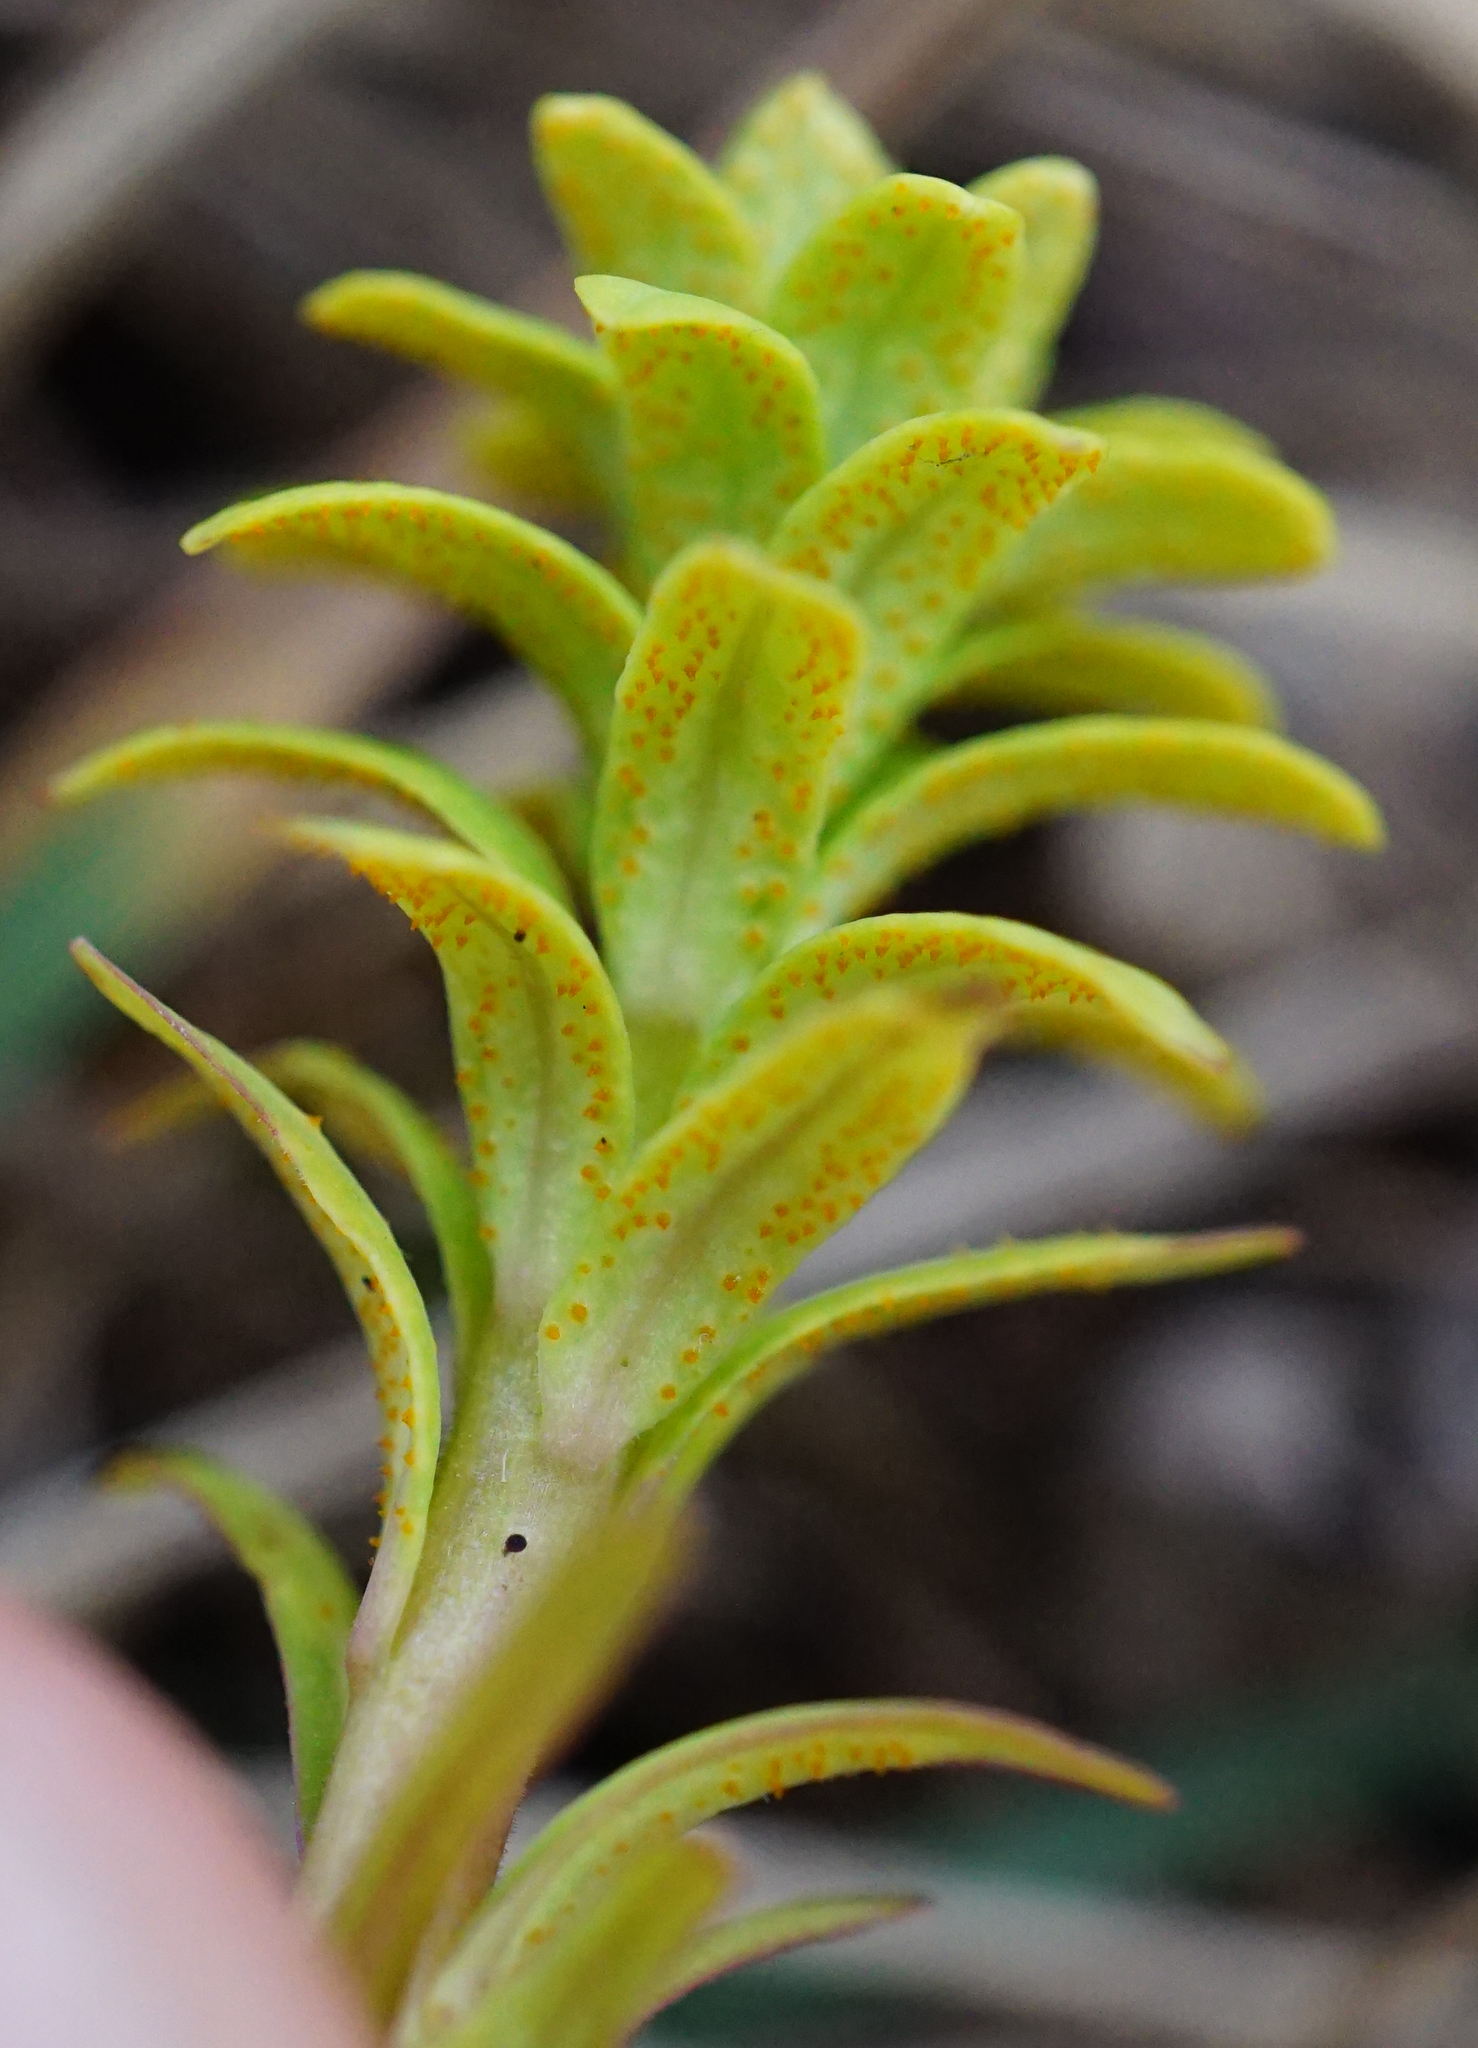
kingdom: Fungi
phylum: Basidiomycota
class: Pucciniomycetes
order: Pucciniales
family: Pucciniaceae
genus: Uromyces
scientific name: Uromyces
